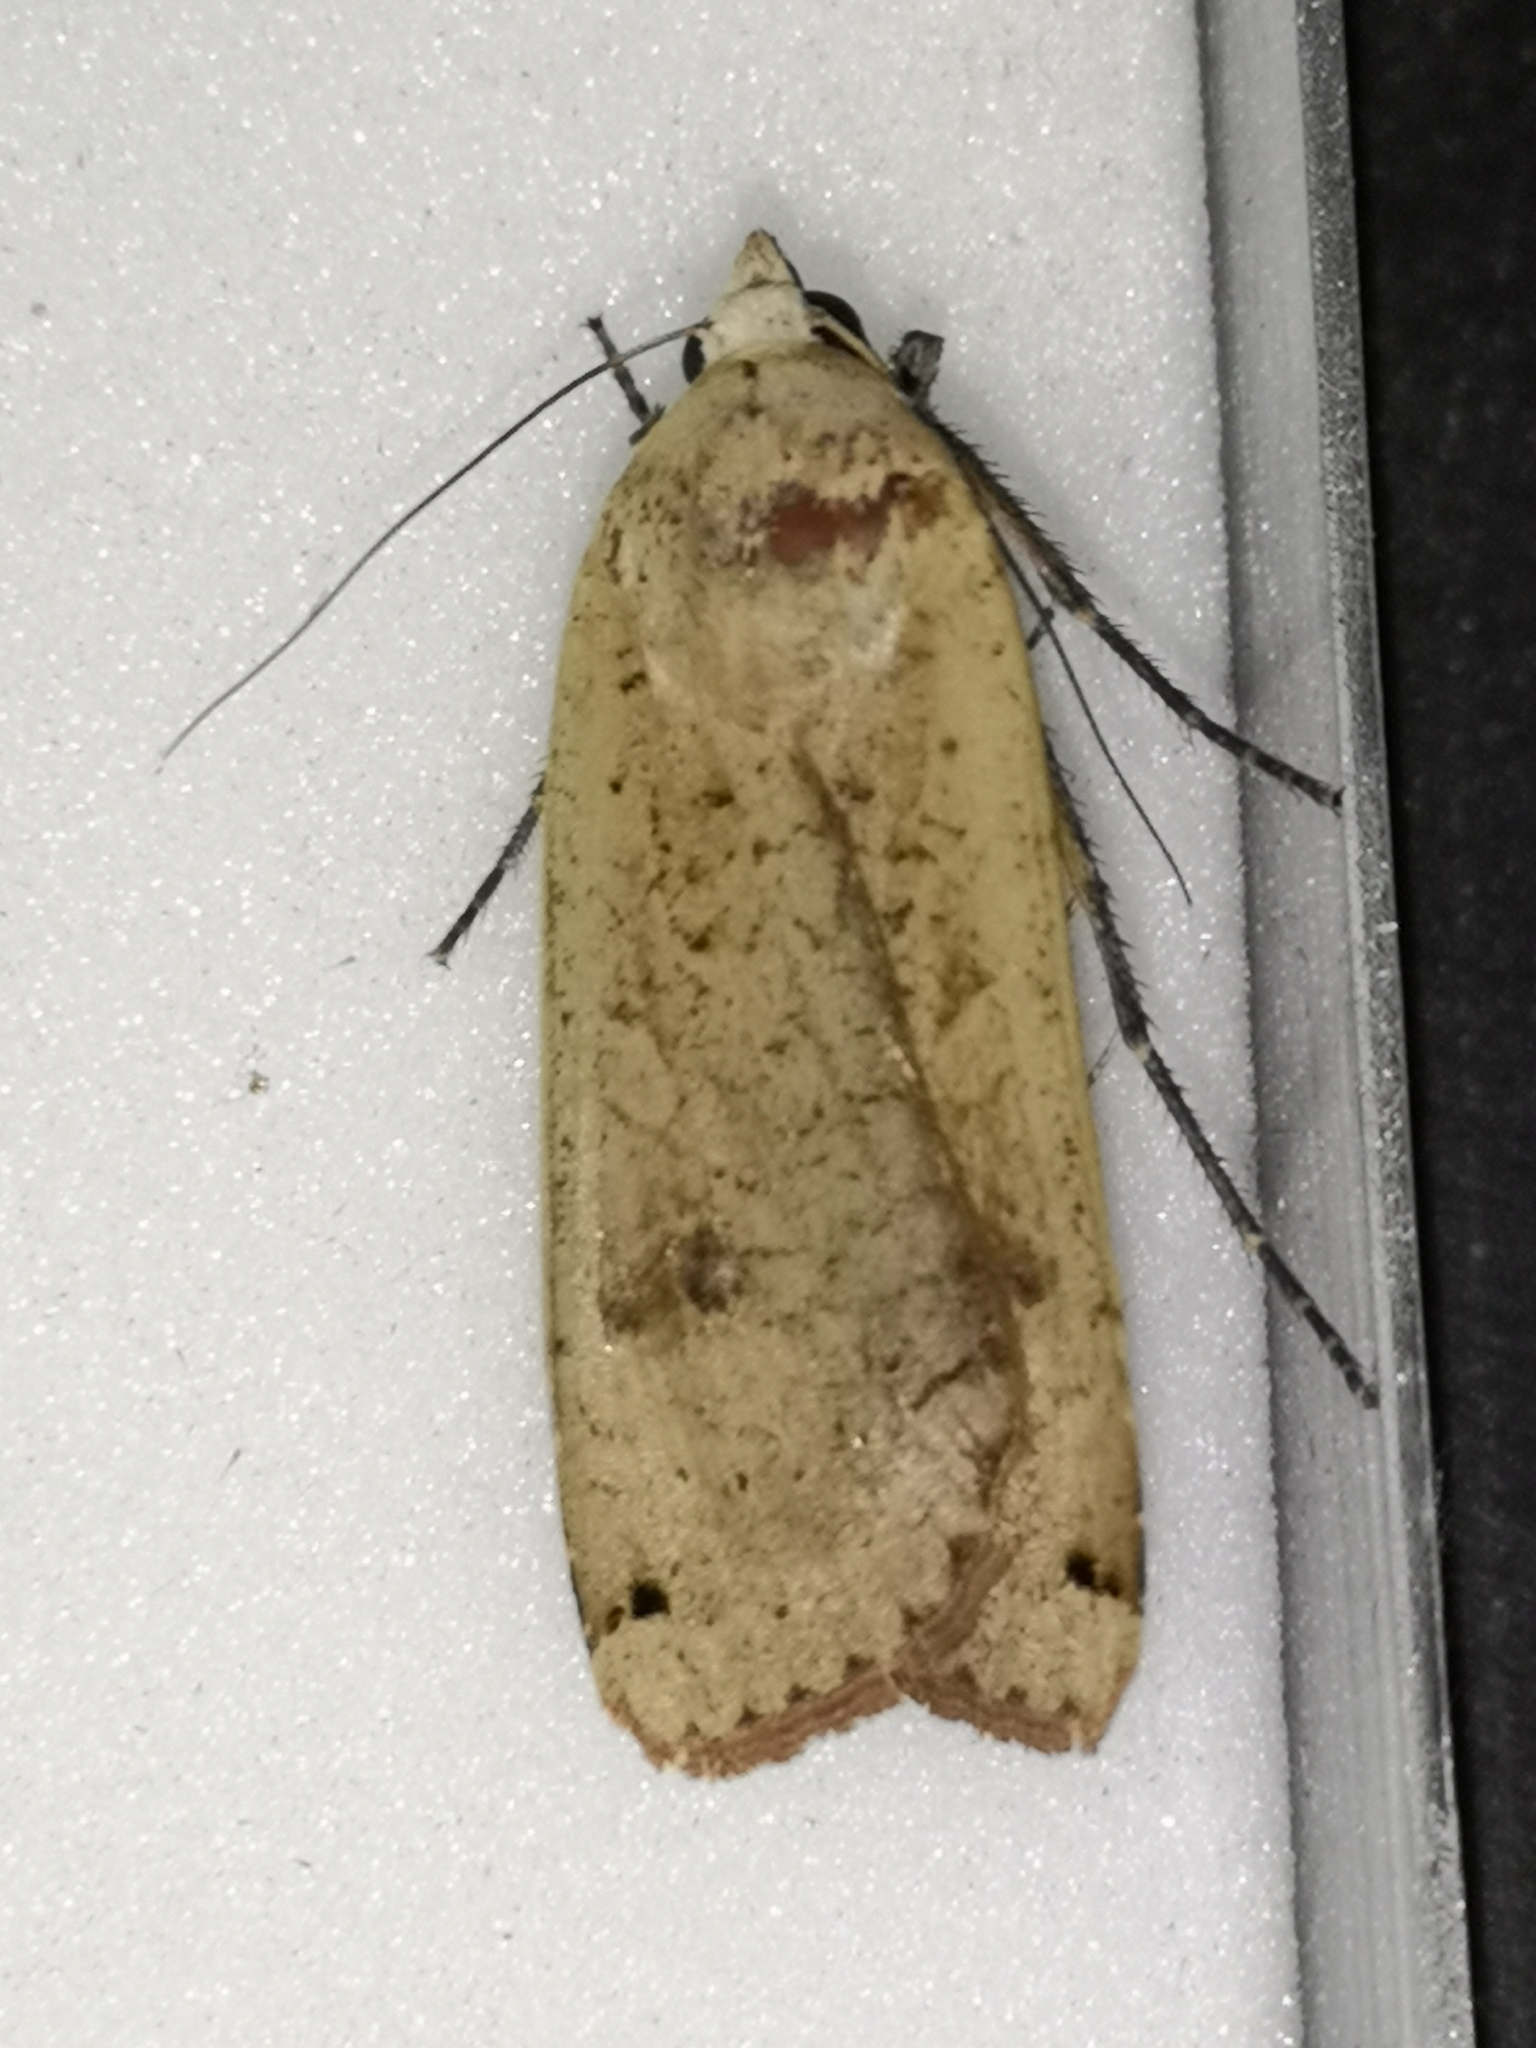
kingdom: Animalia
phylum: Arthropoda
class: Insecta
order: Lepidoptera
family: Noctuidae
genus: Noctua
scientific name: Noctua pronuba
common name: Large yellow underwing
